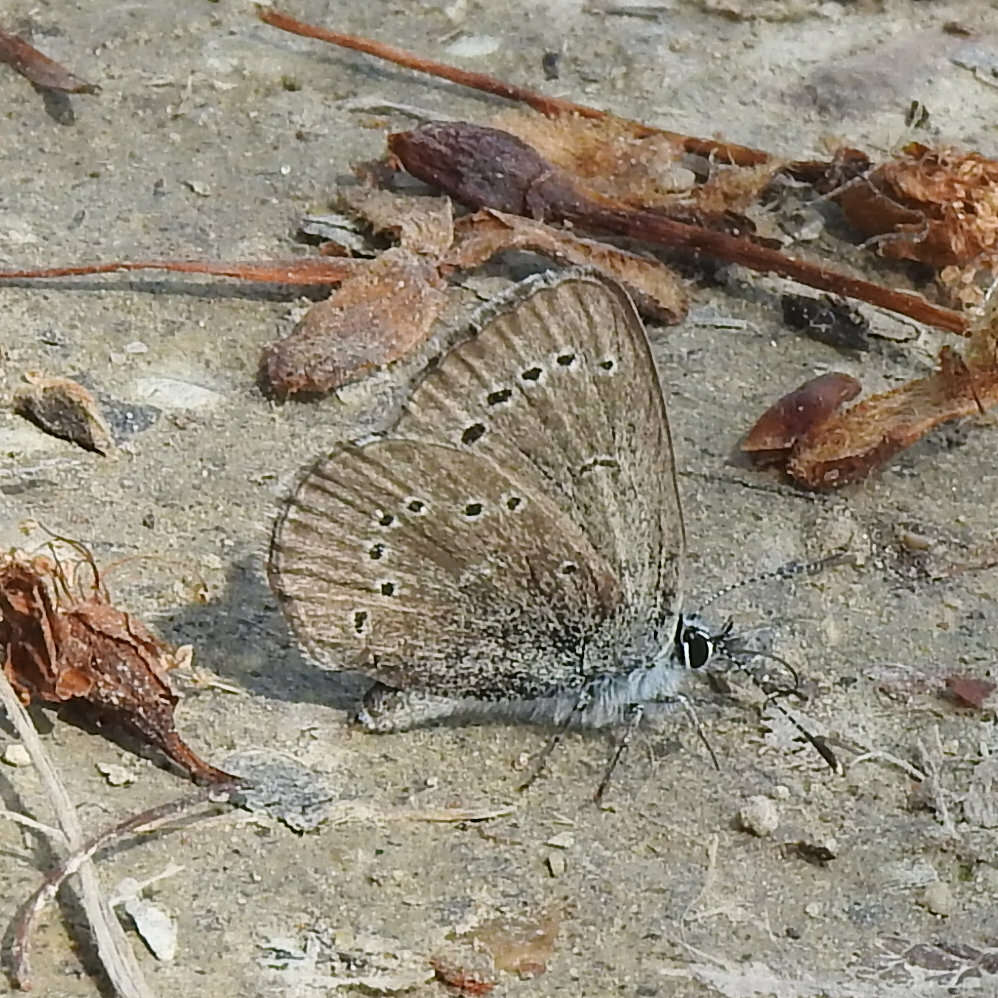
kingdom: Animalia
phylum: Arthropoda
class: Insecta
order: Lepidoptera
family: Lycaenidae
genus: Glaucopsyche
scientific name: Glaucopsyche lygdamus
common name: Silvery blue
